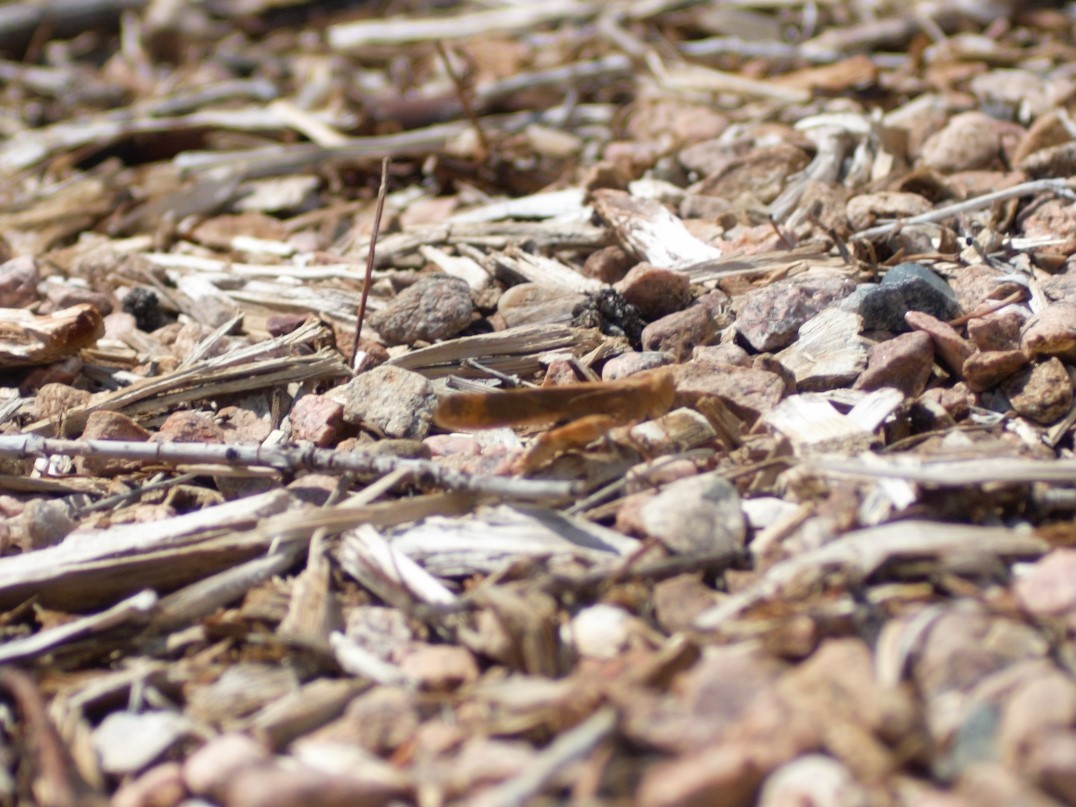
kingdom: Animalia
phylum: Arthropoda
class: Insecta
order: Orthoptera
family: Acrididae
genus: Dissosteira
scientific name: Dissosteira carolina
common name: Carolina grasshopper
